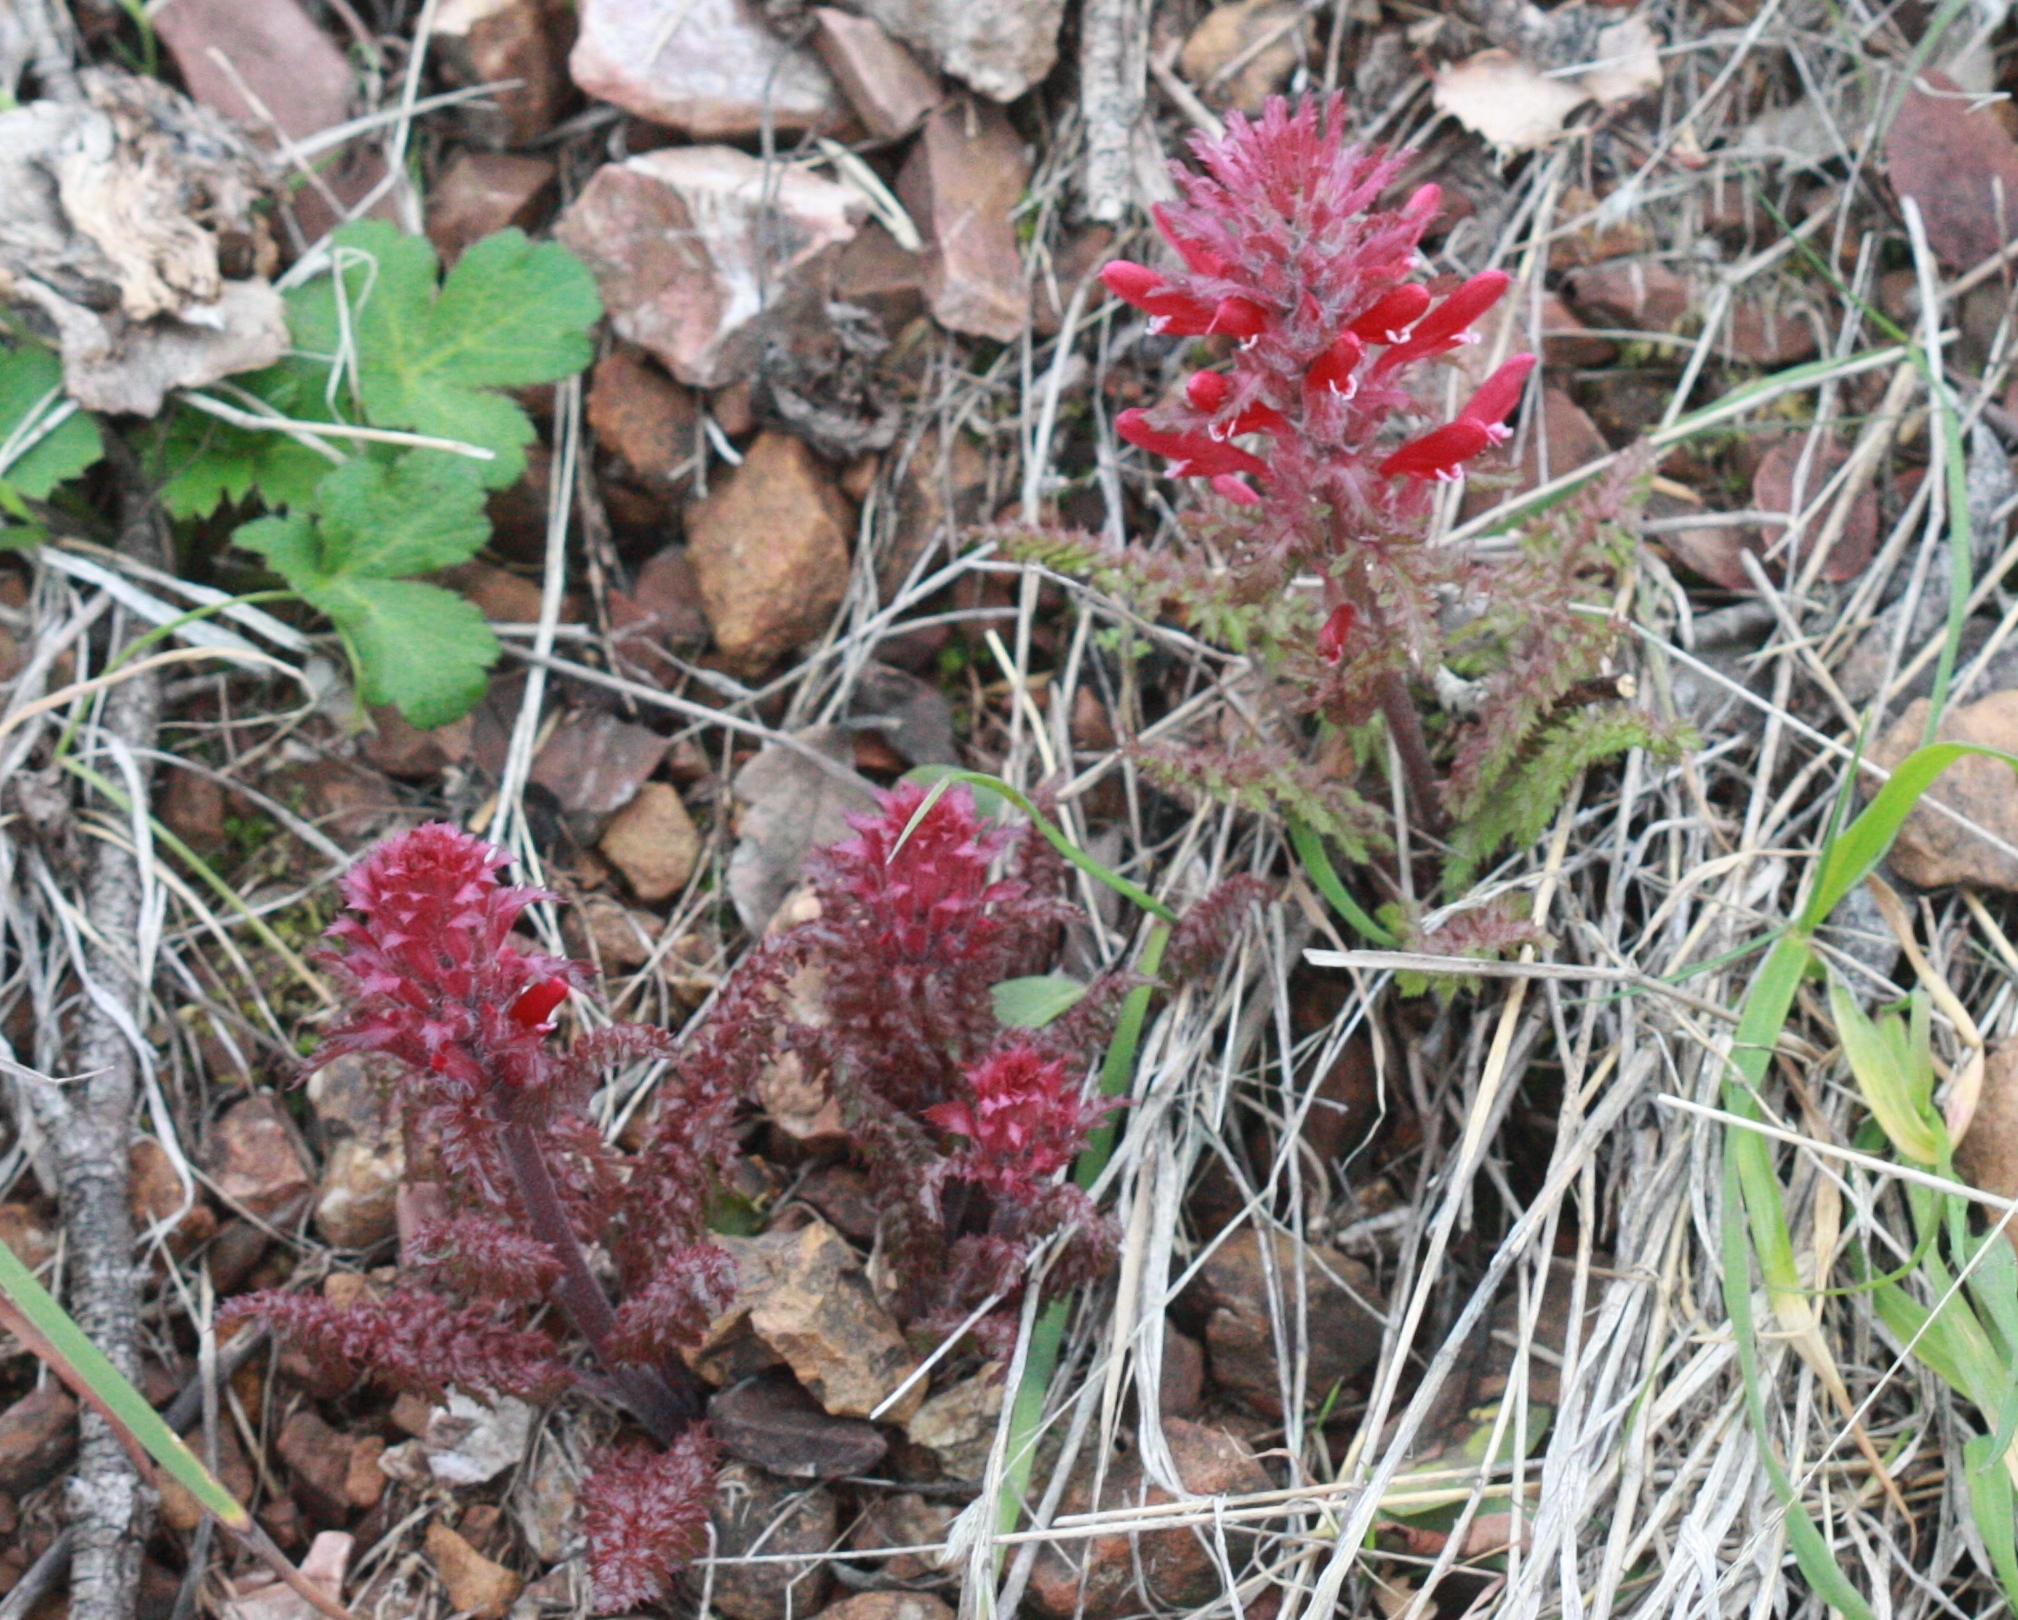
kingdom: Plantae
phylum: Tracheophyta
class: Magnoliopsida
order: Lamiales
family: Orobanchaceae
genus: Pedicularis
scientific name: Pedicularis densiflora
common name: Indian warrior
